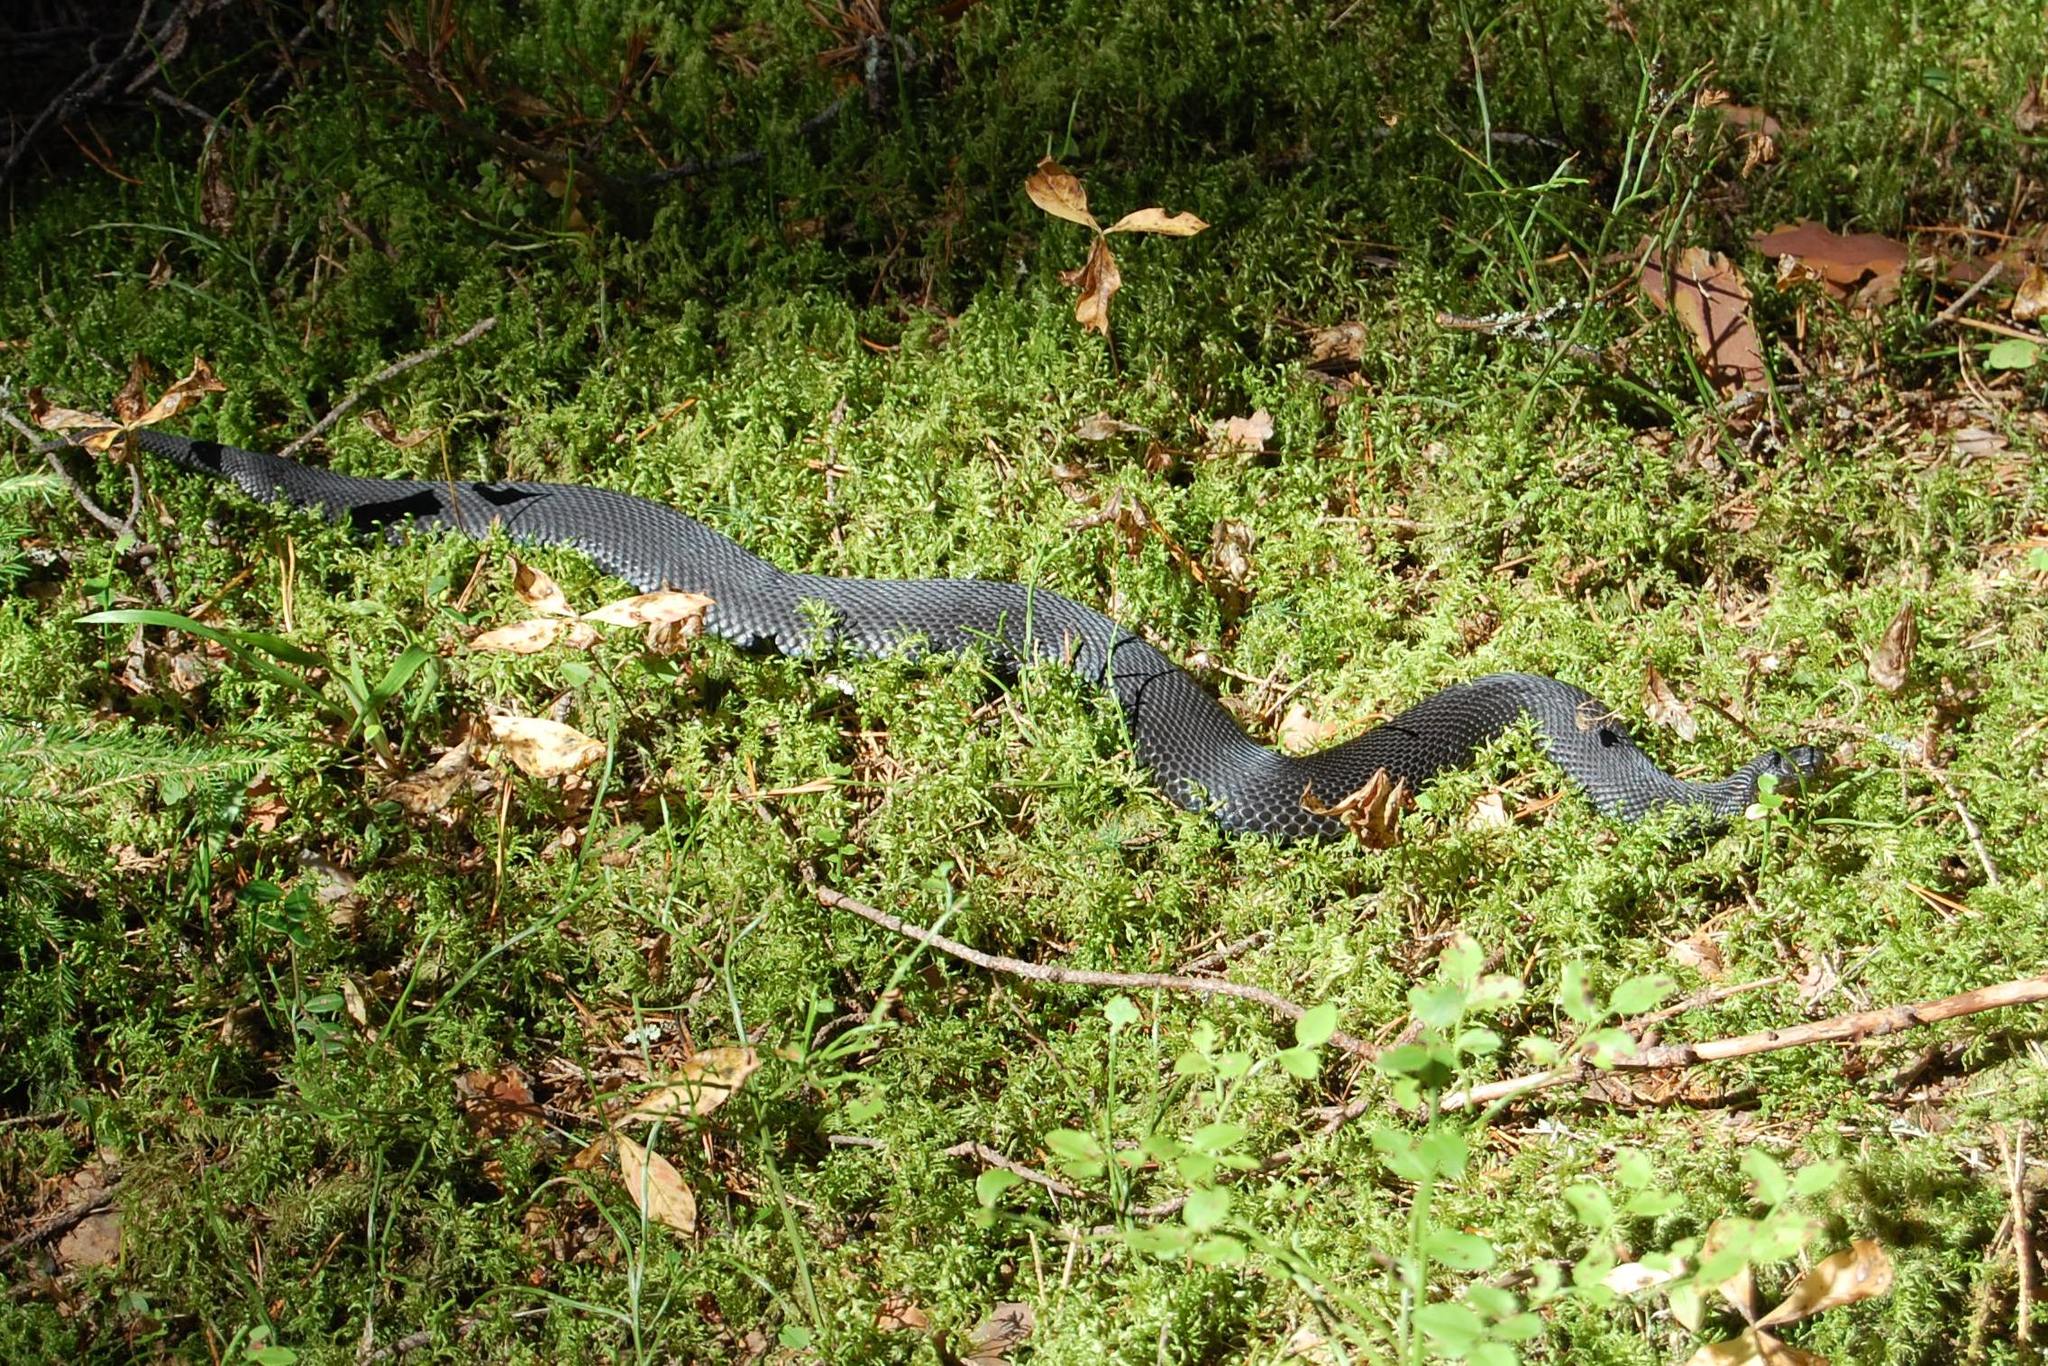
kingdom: Animalia
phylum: Chordata
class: Squamata
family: Viperidae
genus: Vipera
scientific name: Vipera berus
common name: Adder
